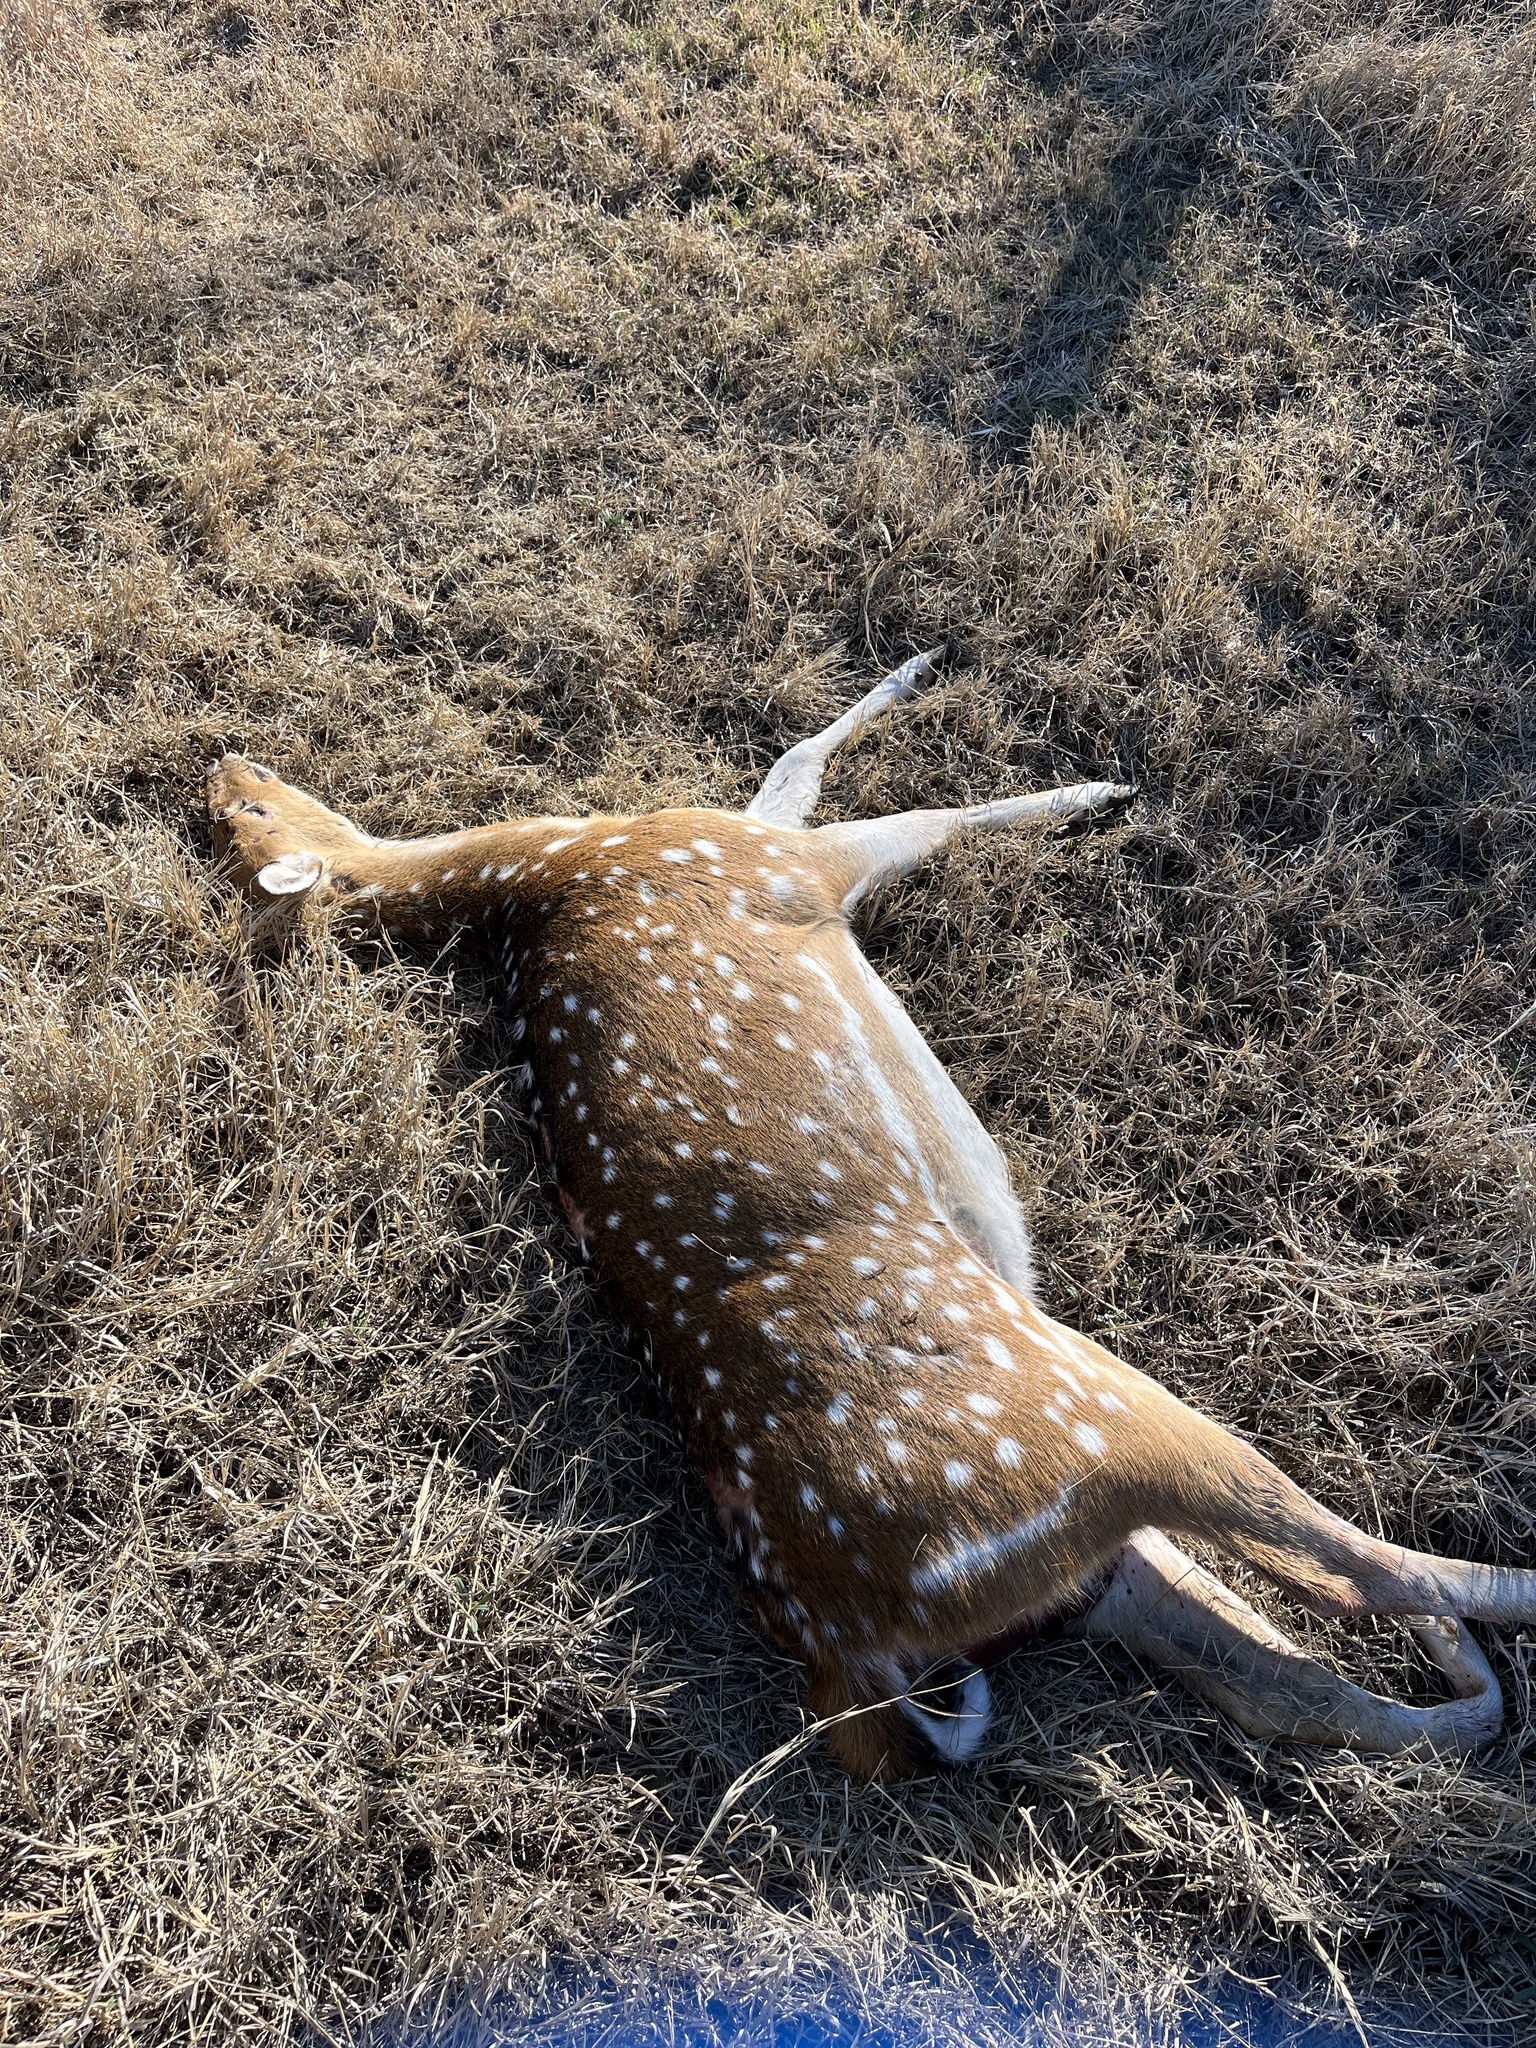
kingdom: Animalia
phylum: Chordata
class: Mammalia
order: Artiodactyla
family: Cervidae
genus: Axis
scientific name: Axis axis
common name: Chital
